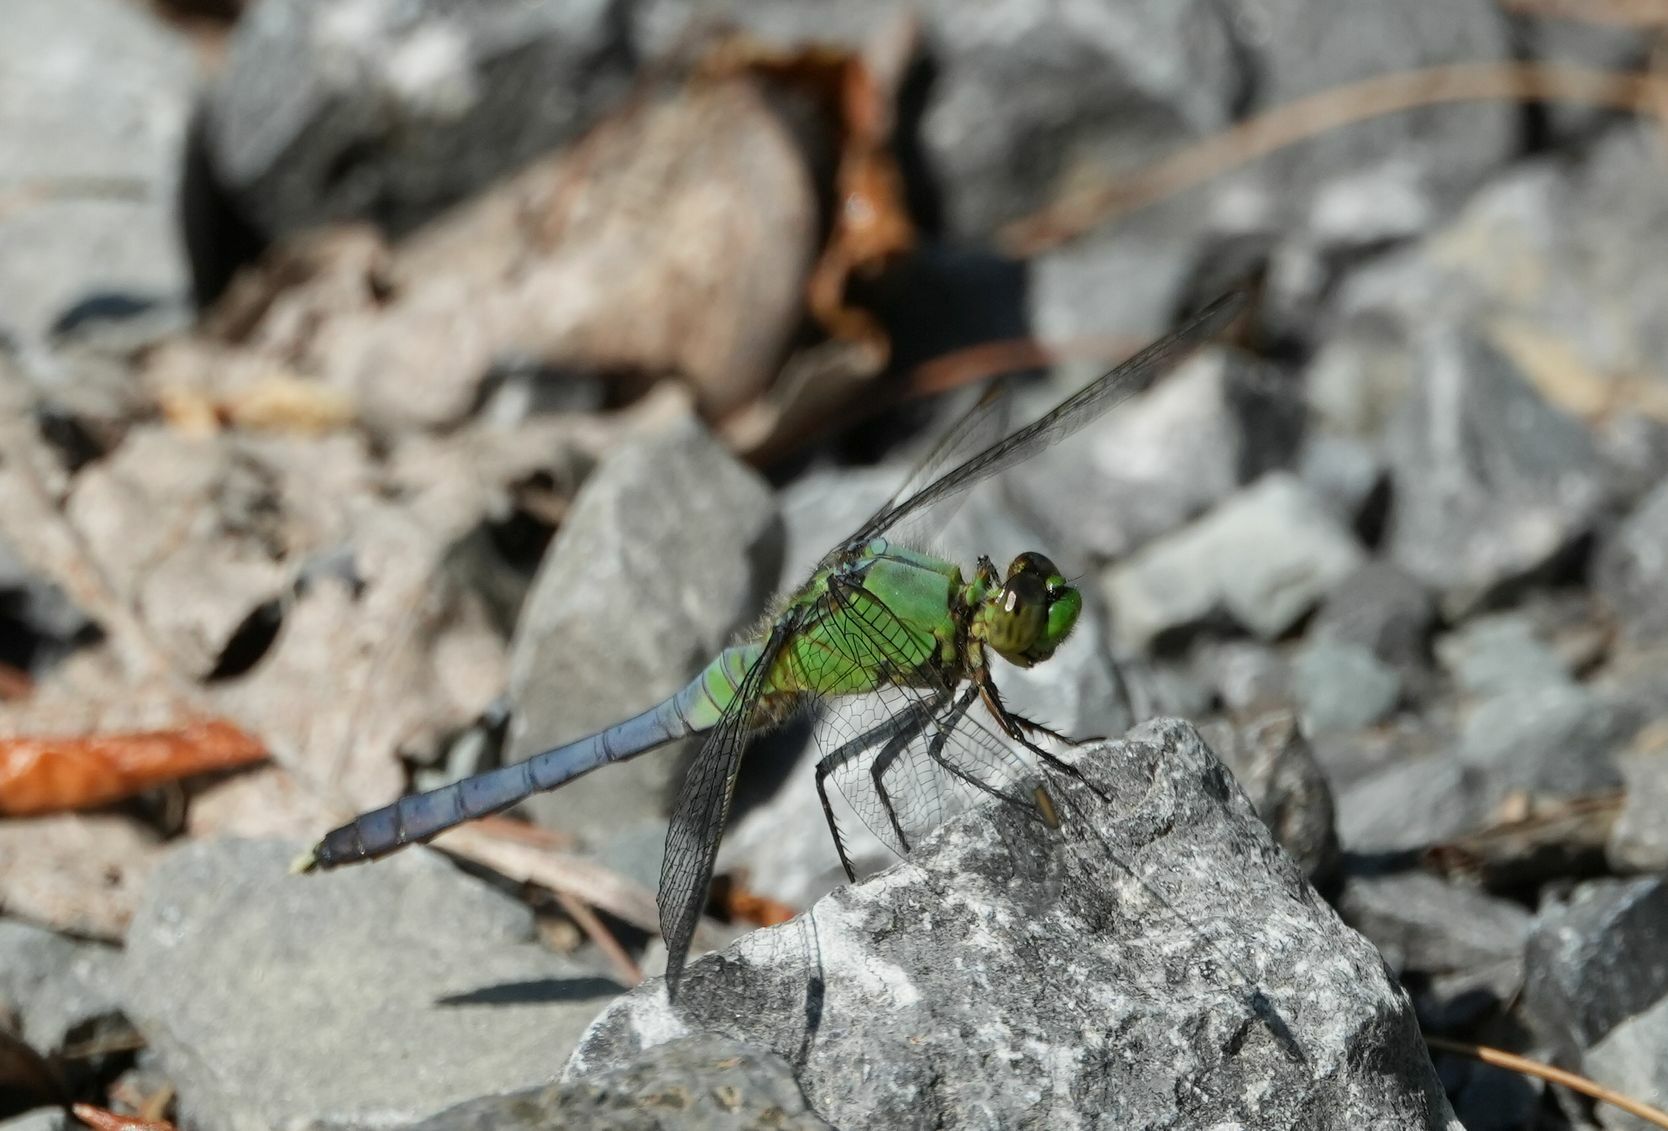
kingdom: Animalia
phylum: Arthropoda
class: Insecta
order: Odonata
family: Libellulidae
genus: Erythemis
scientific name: Erythemis simplicicollis
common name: Eastern pondhawk
